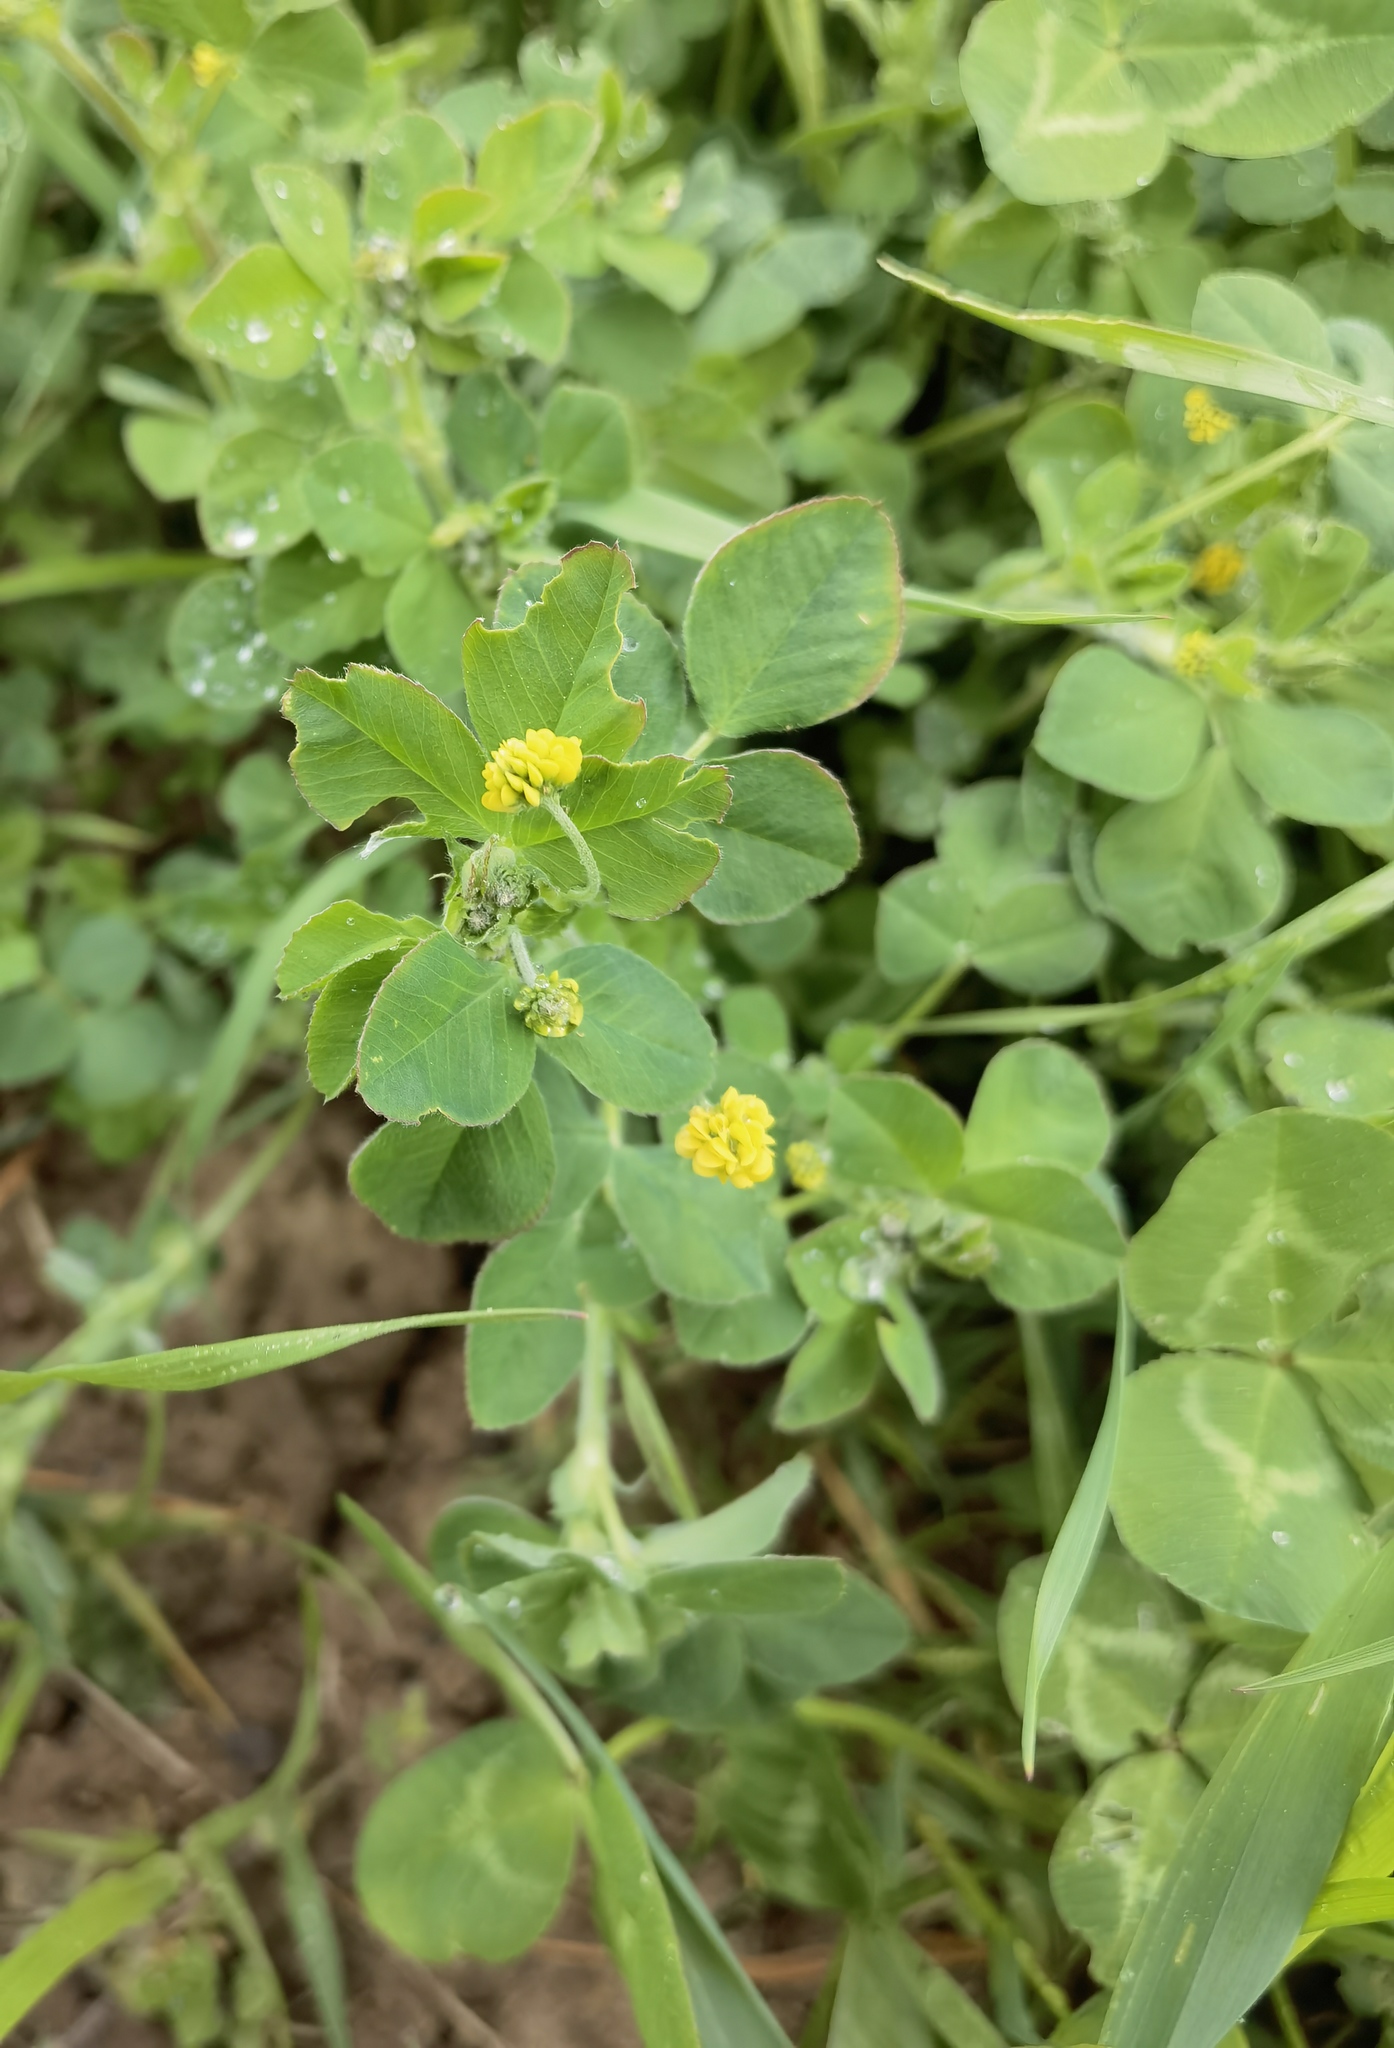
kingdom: Plantae
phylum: Tracheophyta
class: Magnoliopsida
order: Fabales
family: Fabaceae
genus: Medicago
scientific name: Medicago lupulina
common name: Black medick
